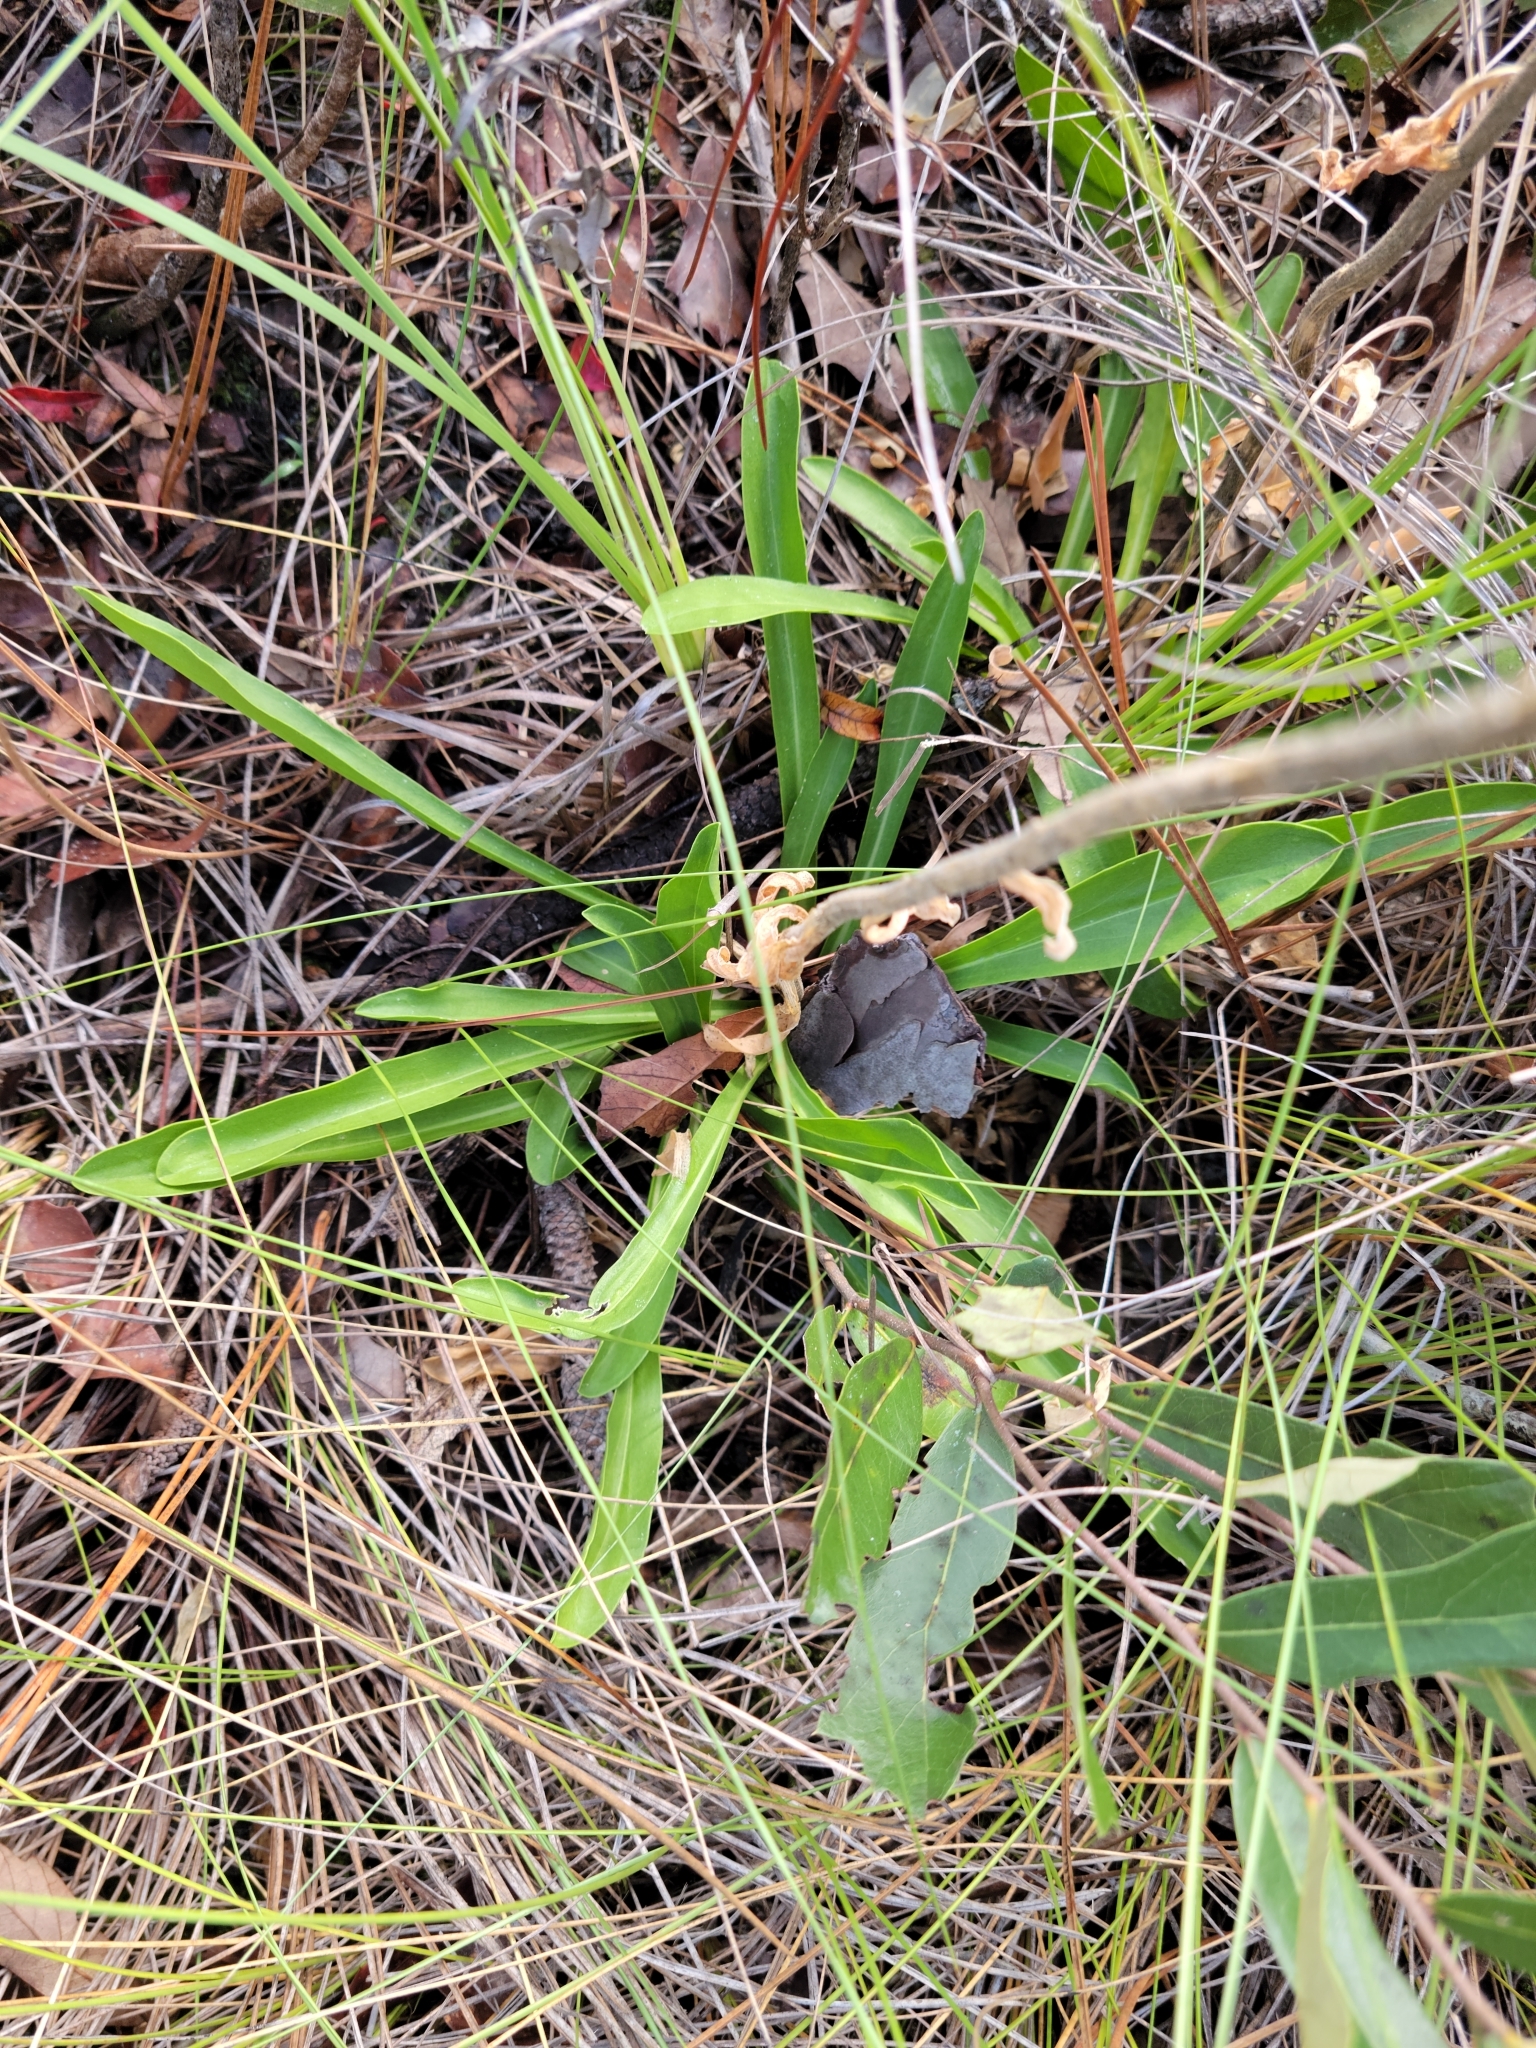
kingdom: Plantae
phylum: Tracheophyta
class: Magnoliopsida
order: Asterales
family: Asteraceae
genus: Carphephorus
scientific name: Carphephorus corymbosus
